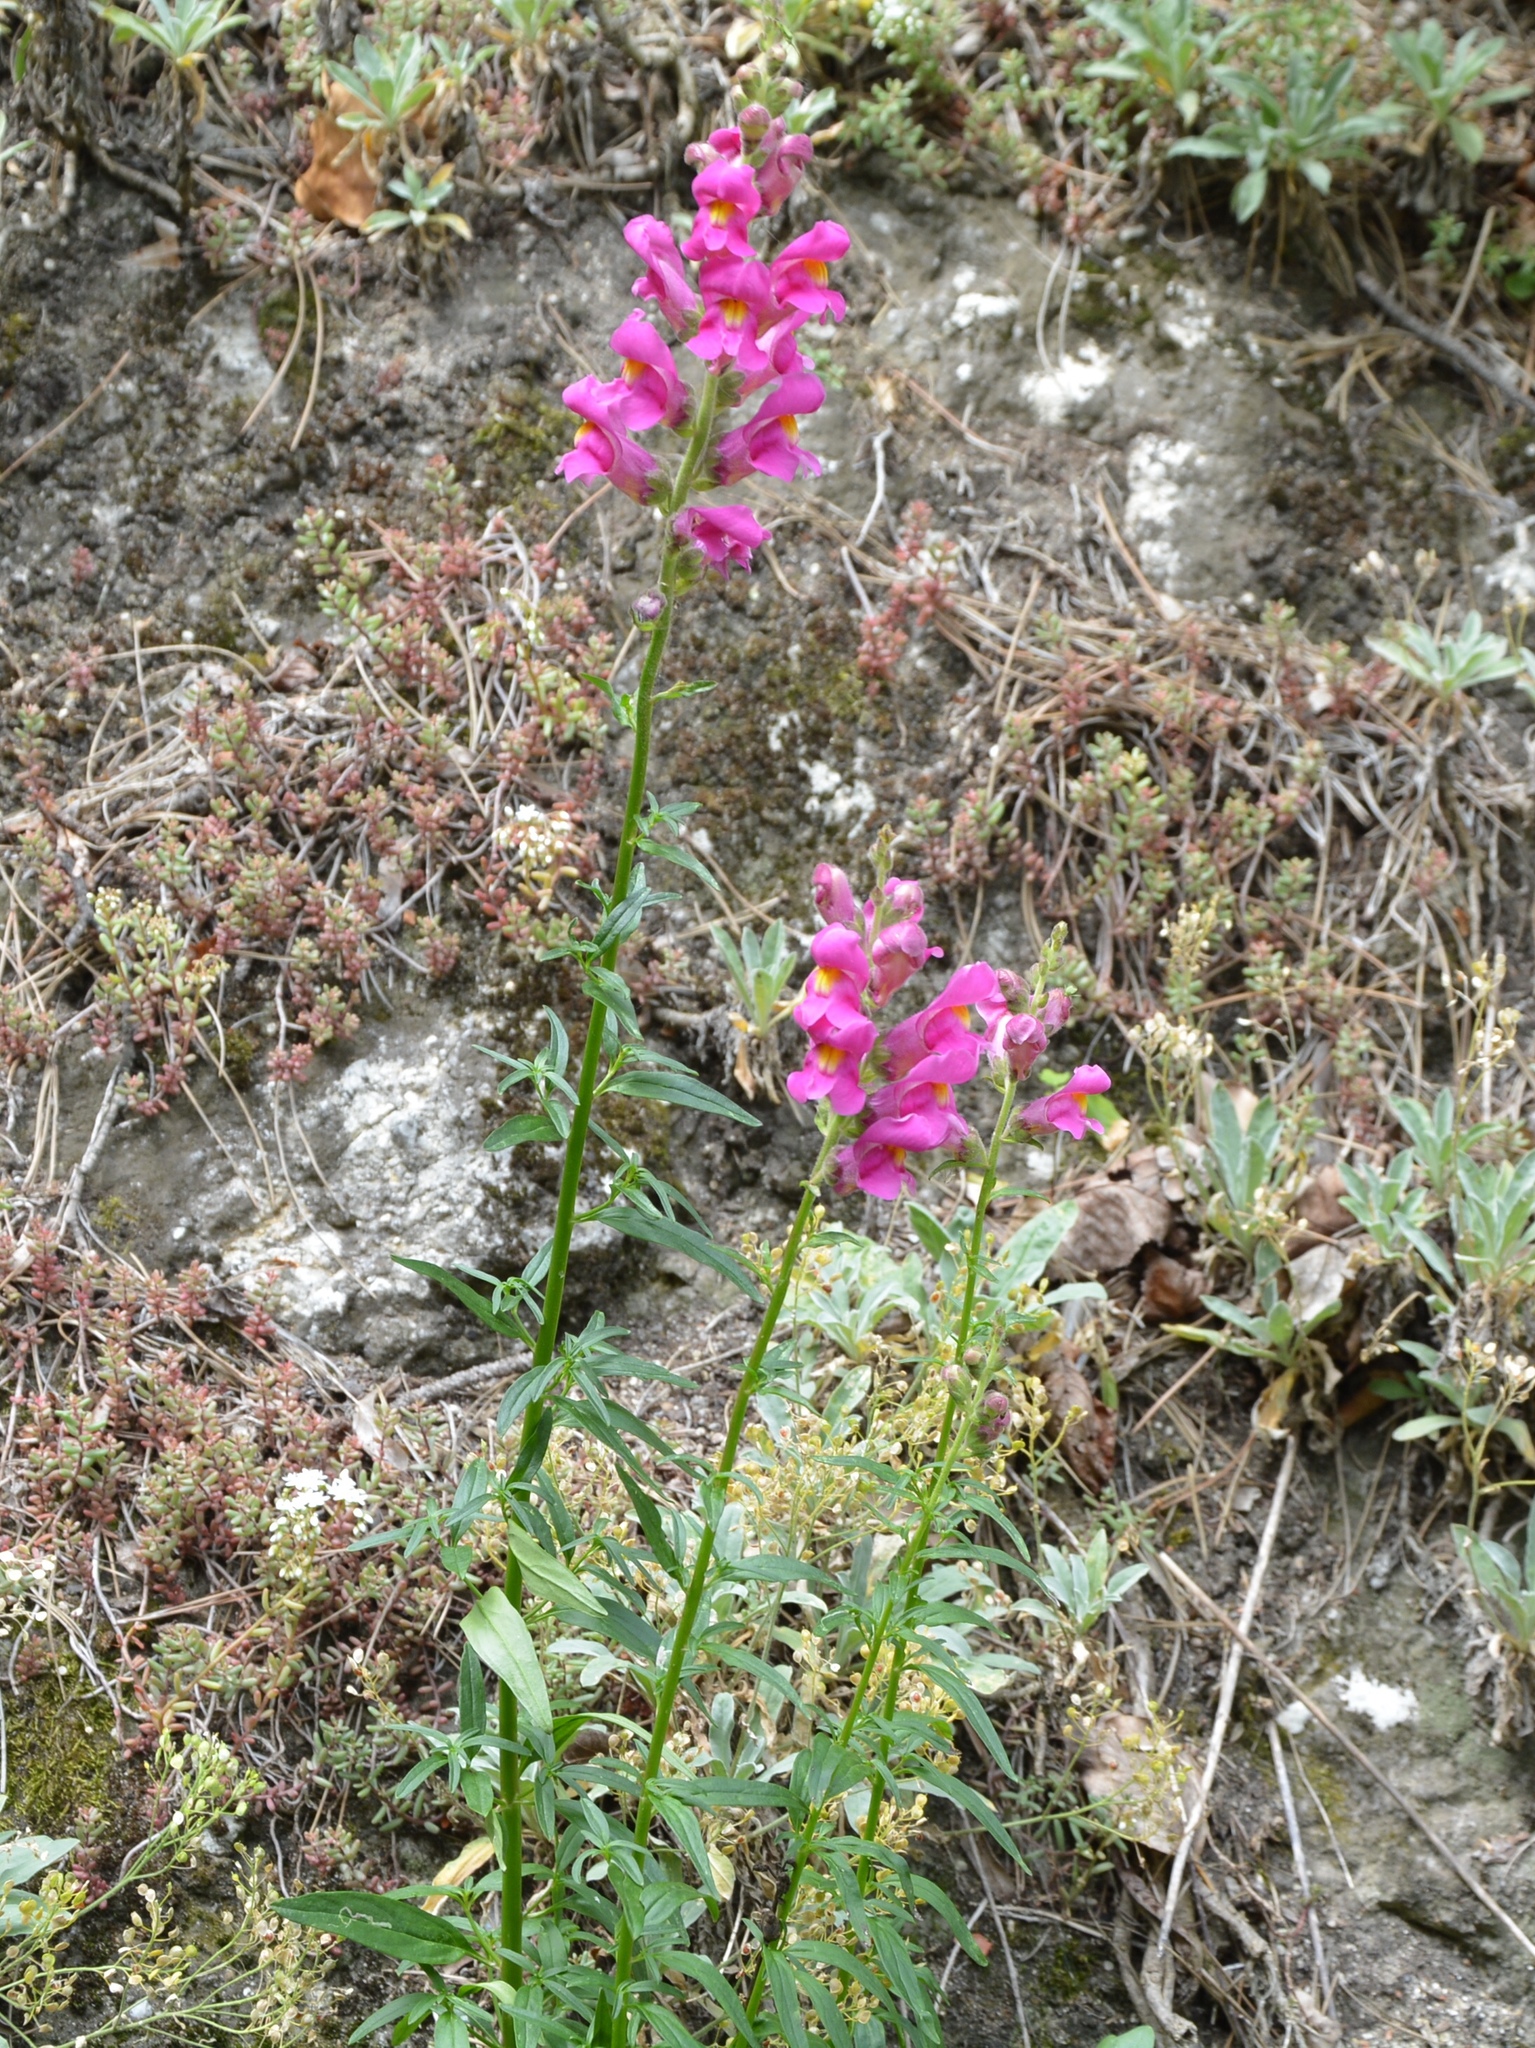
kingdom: Plantae
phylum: Tracheophyta
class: Magnoliopsida
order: Lamiales
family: Plantaginaceae
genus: Antirrhinum
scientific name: Antirrhinum majus
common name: Snapdragon
